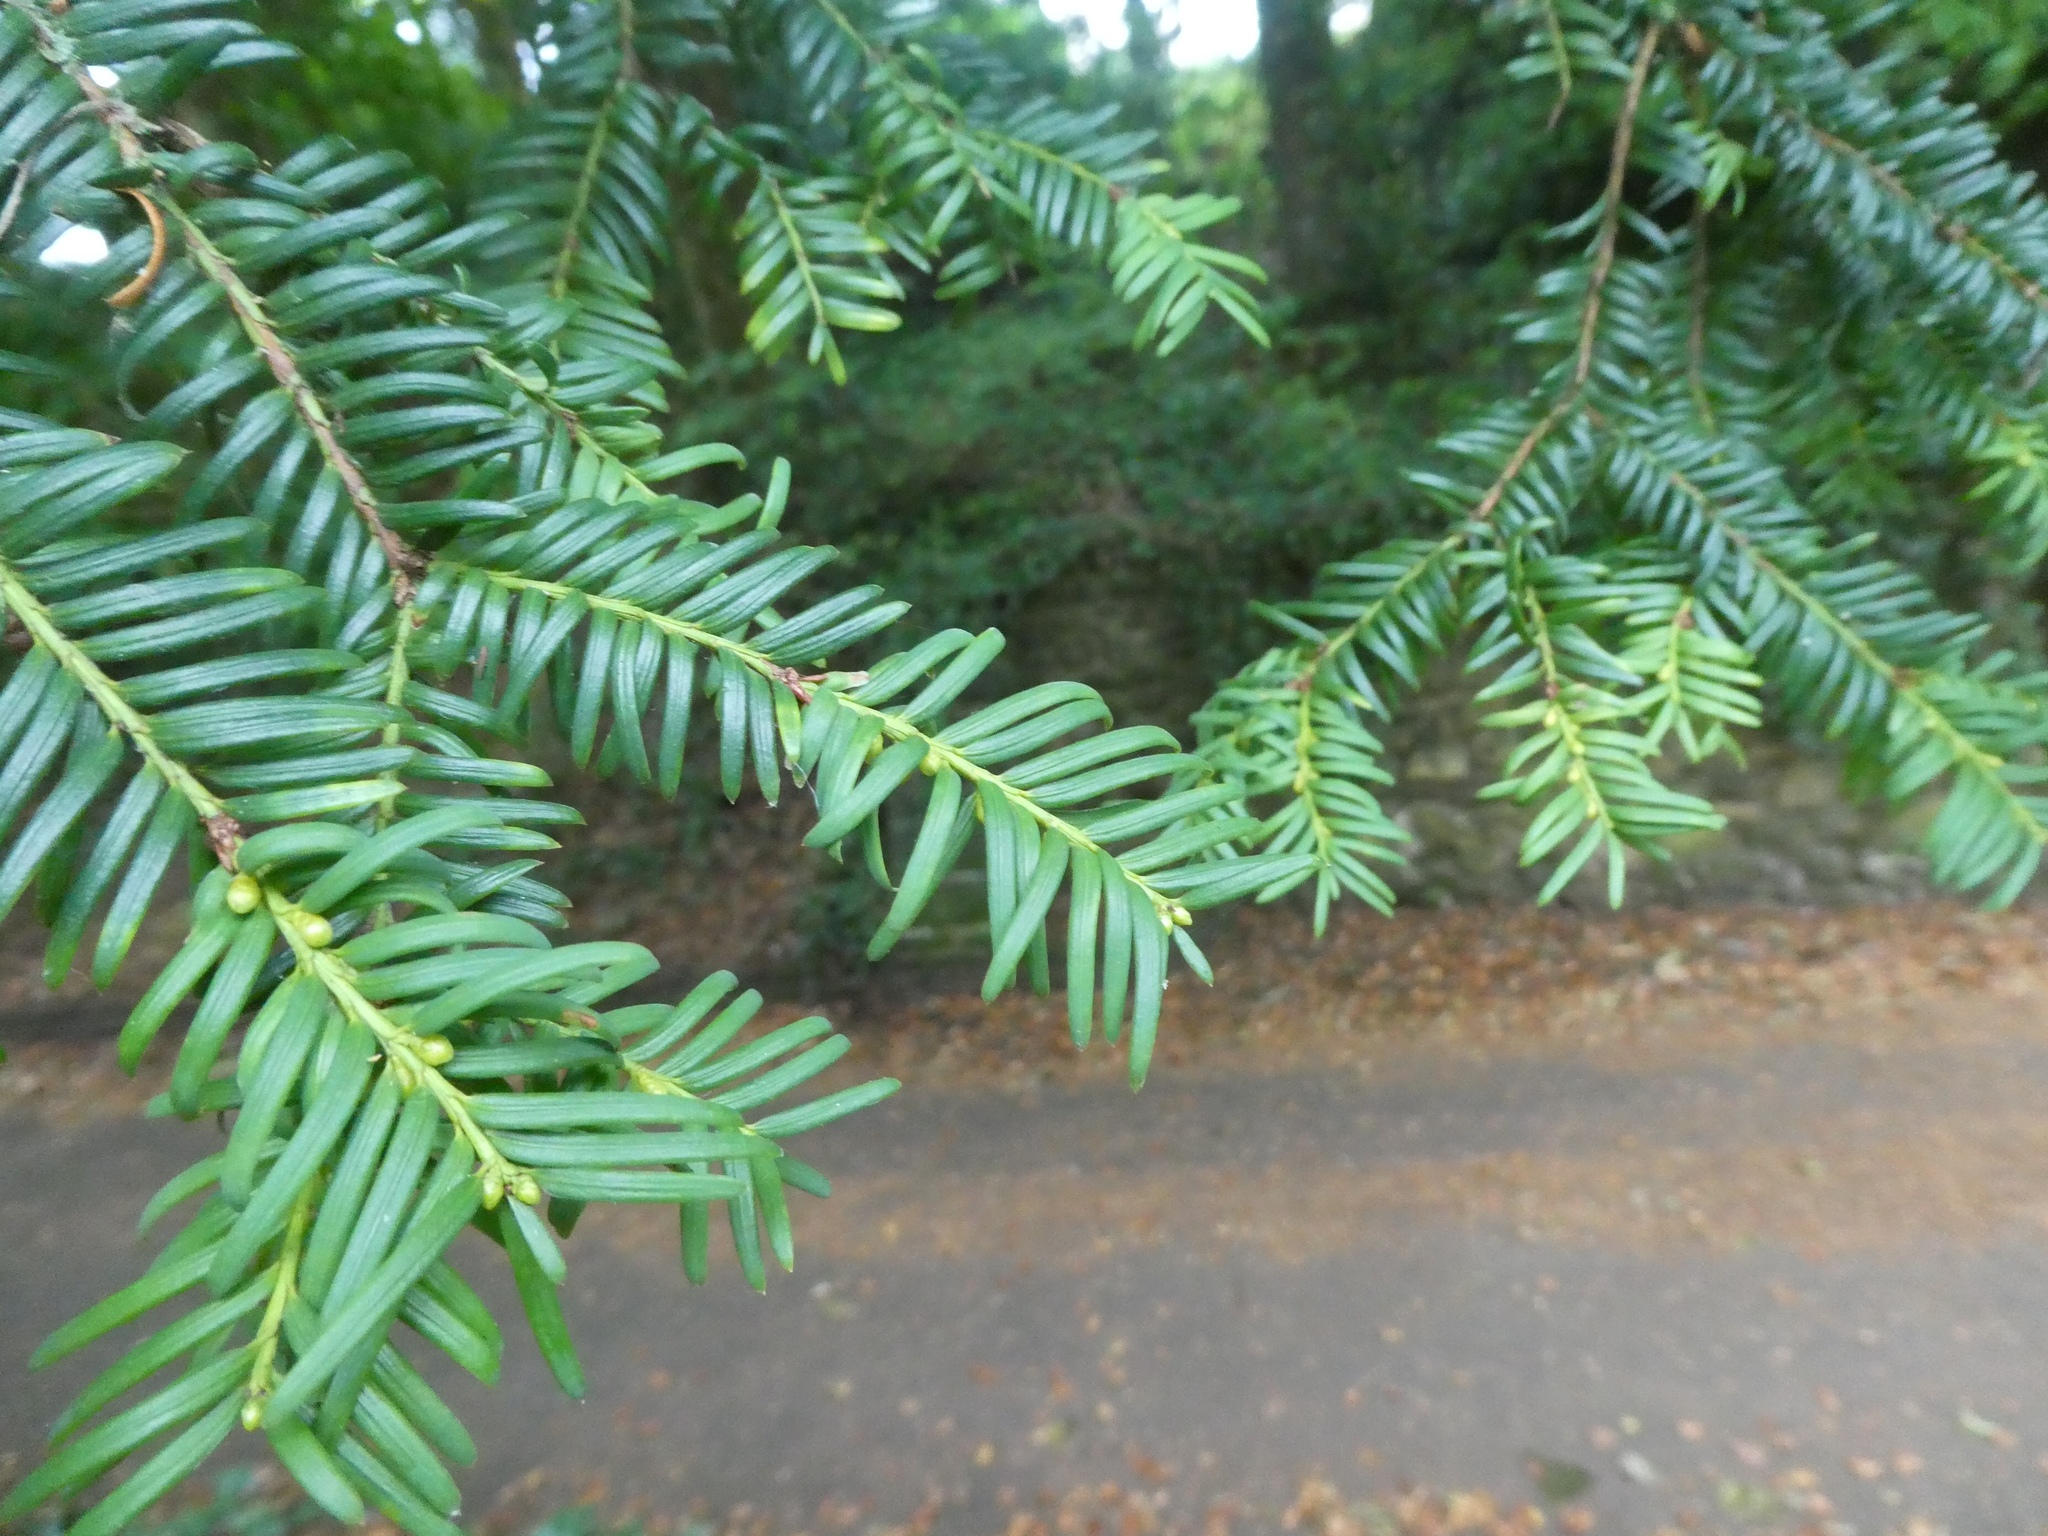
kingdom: Plantae
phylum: Tracheophyta
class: Pinopsida
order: Pinales
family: Taxaceae
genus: Taxus
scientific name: Taxus baccata
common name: Yew
